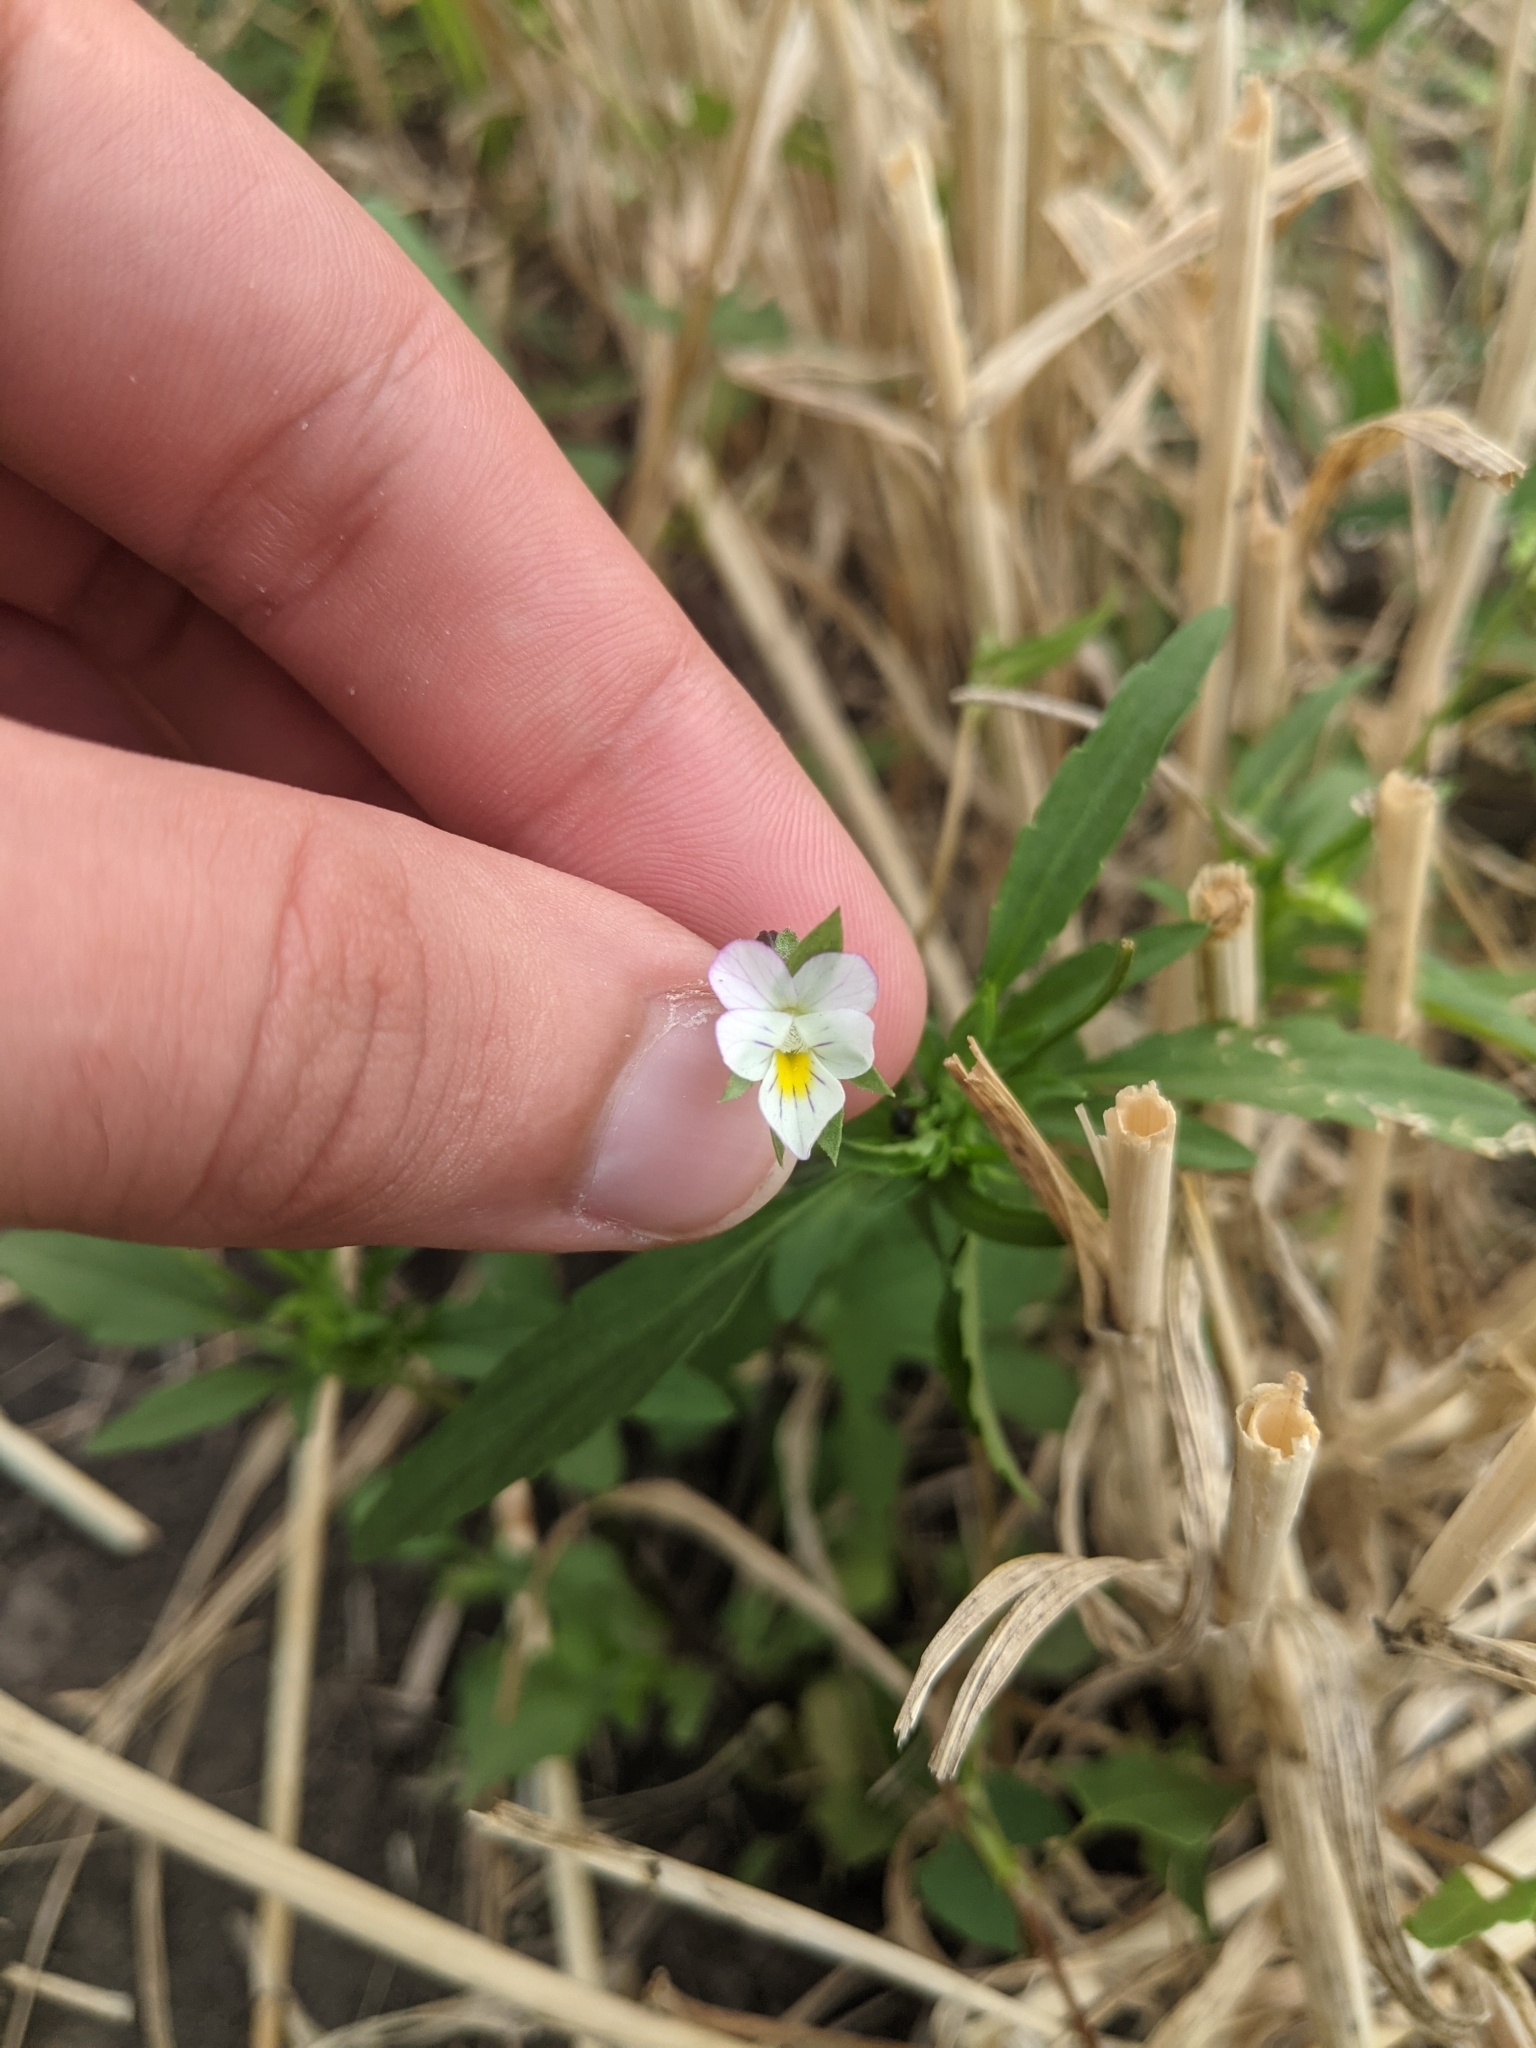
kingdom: Plantae
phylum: Tracheophyta
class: Magnoliopsida
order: Malpighiales
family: Violaceae
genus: Viola
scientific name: Viola arvensis
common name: Field pansy
